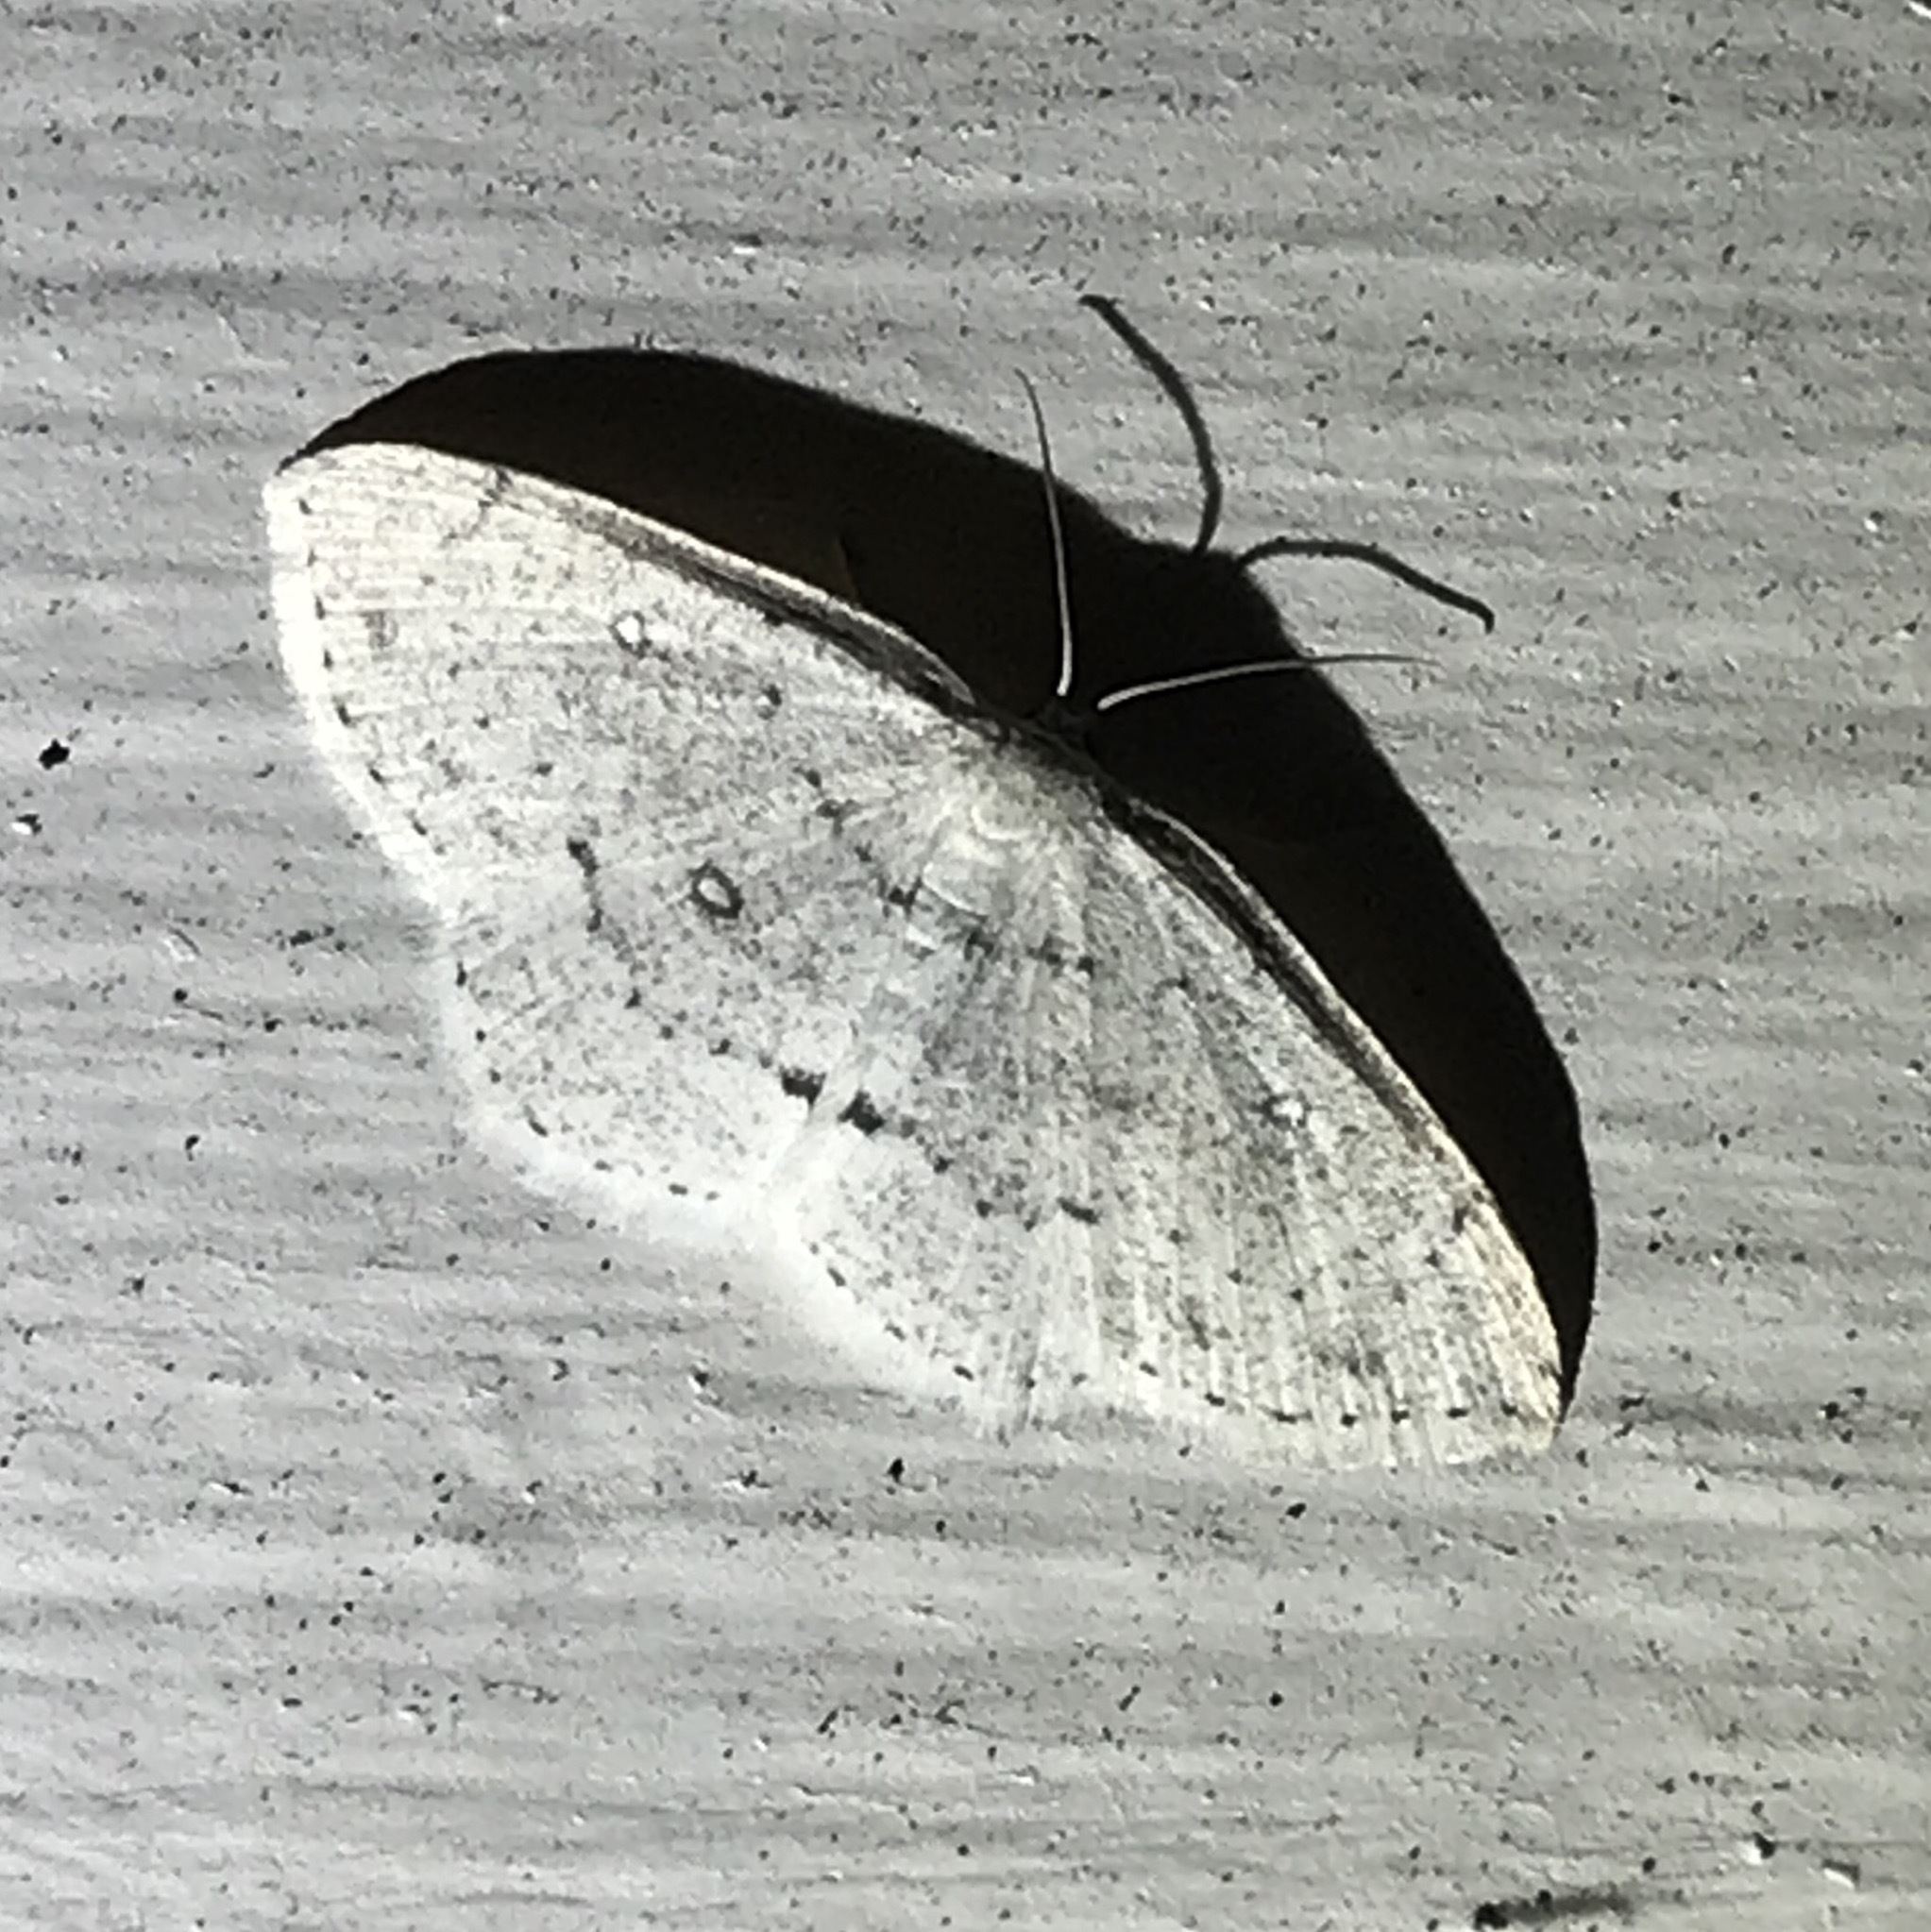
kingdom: Animalia
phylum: Arthropoda
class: Insecta
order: Lepidoptera
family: Geometridae
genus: Cyclophora
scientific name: Cyclophora pendulinaria
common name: Sweet fern geometer
